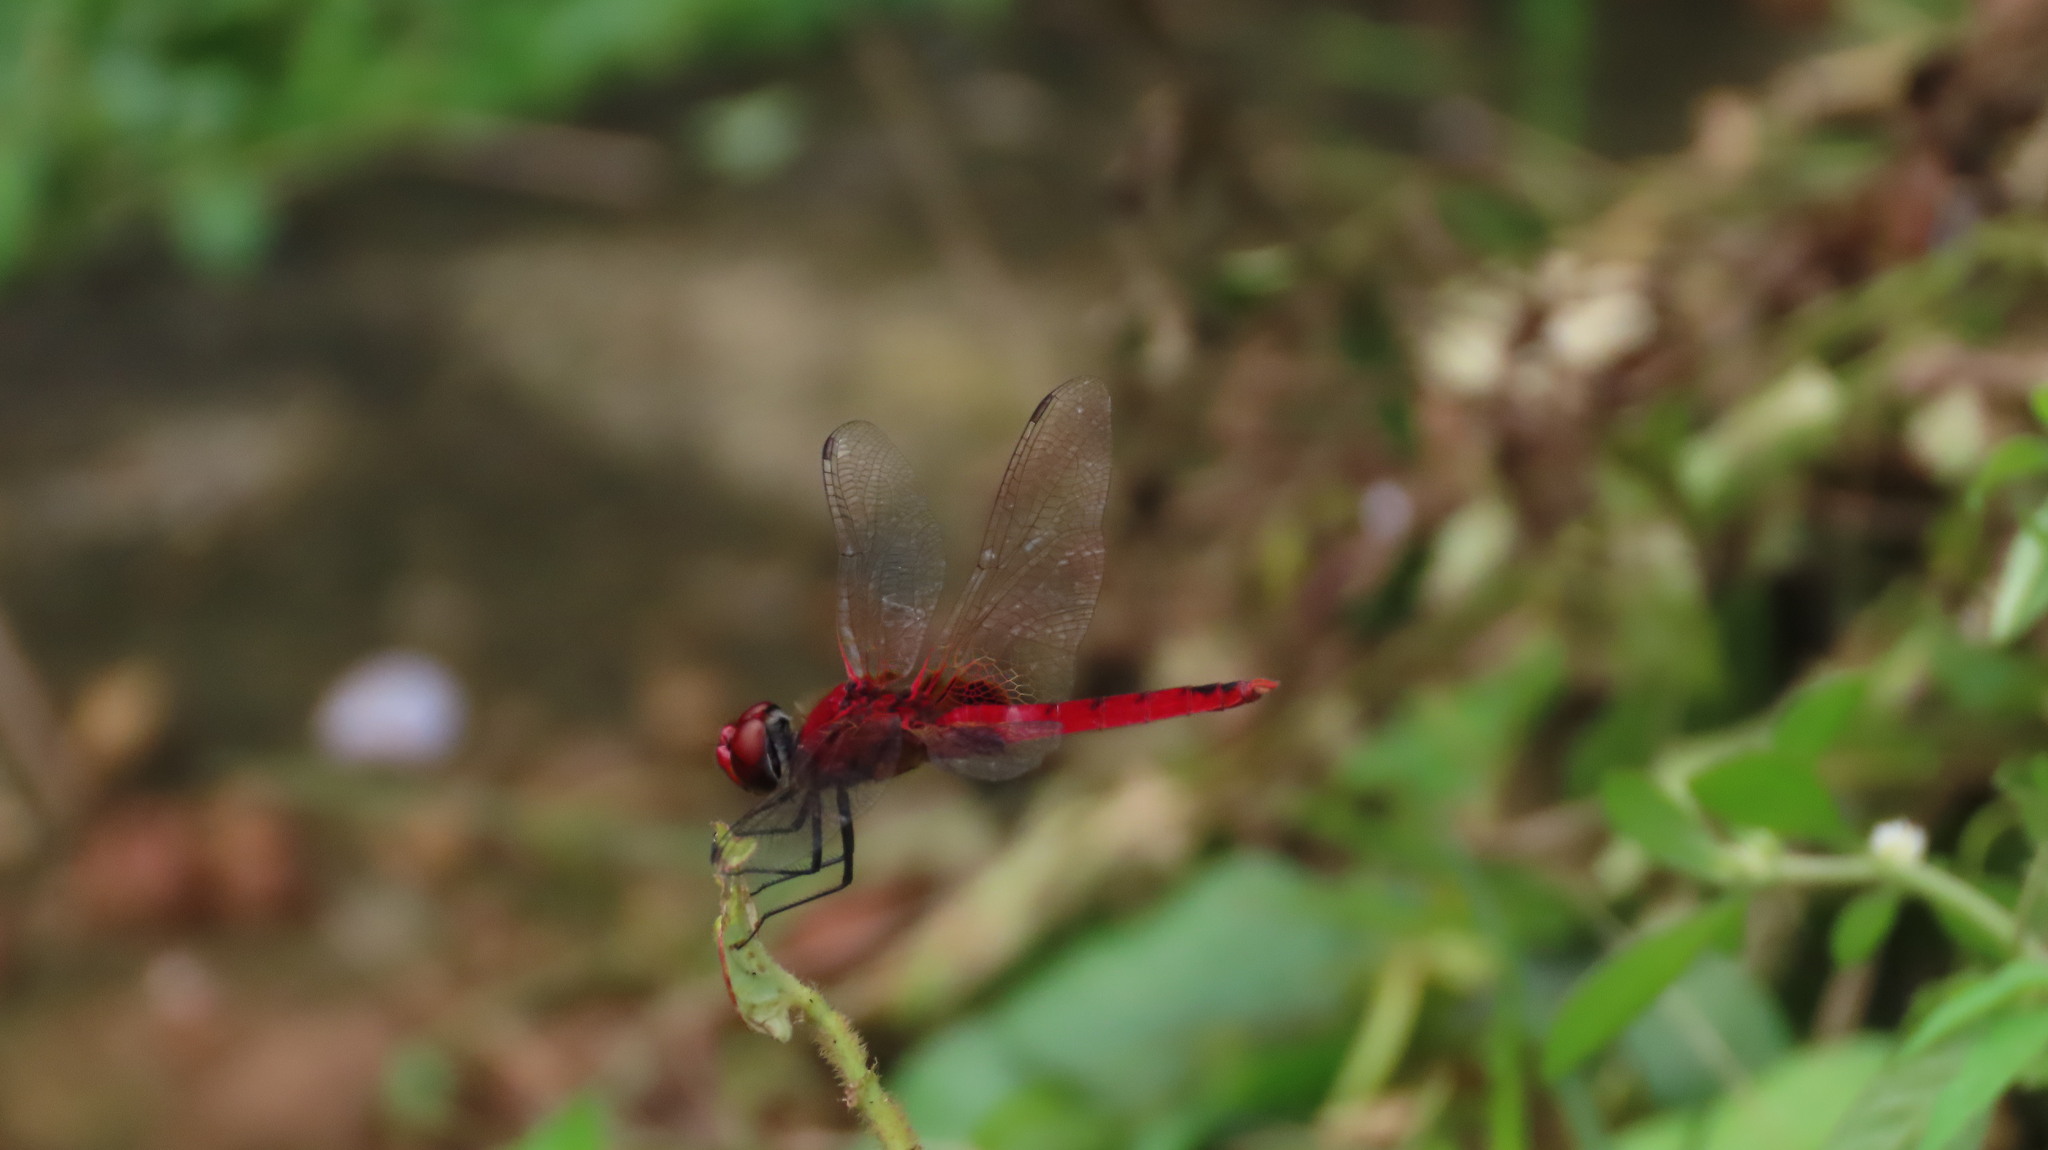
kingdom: Animalia
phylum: Arthropoda
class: Insecta
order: Odonata
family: Libellulidae
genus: Urothemis
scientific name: Urothemis signata
